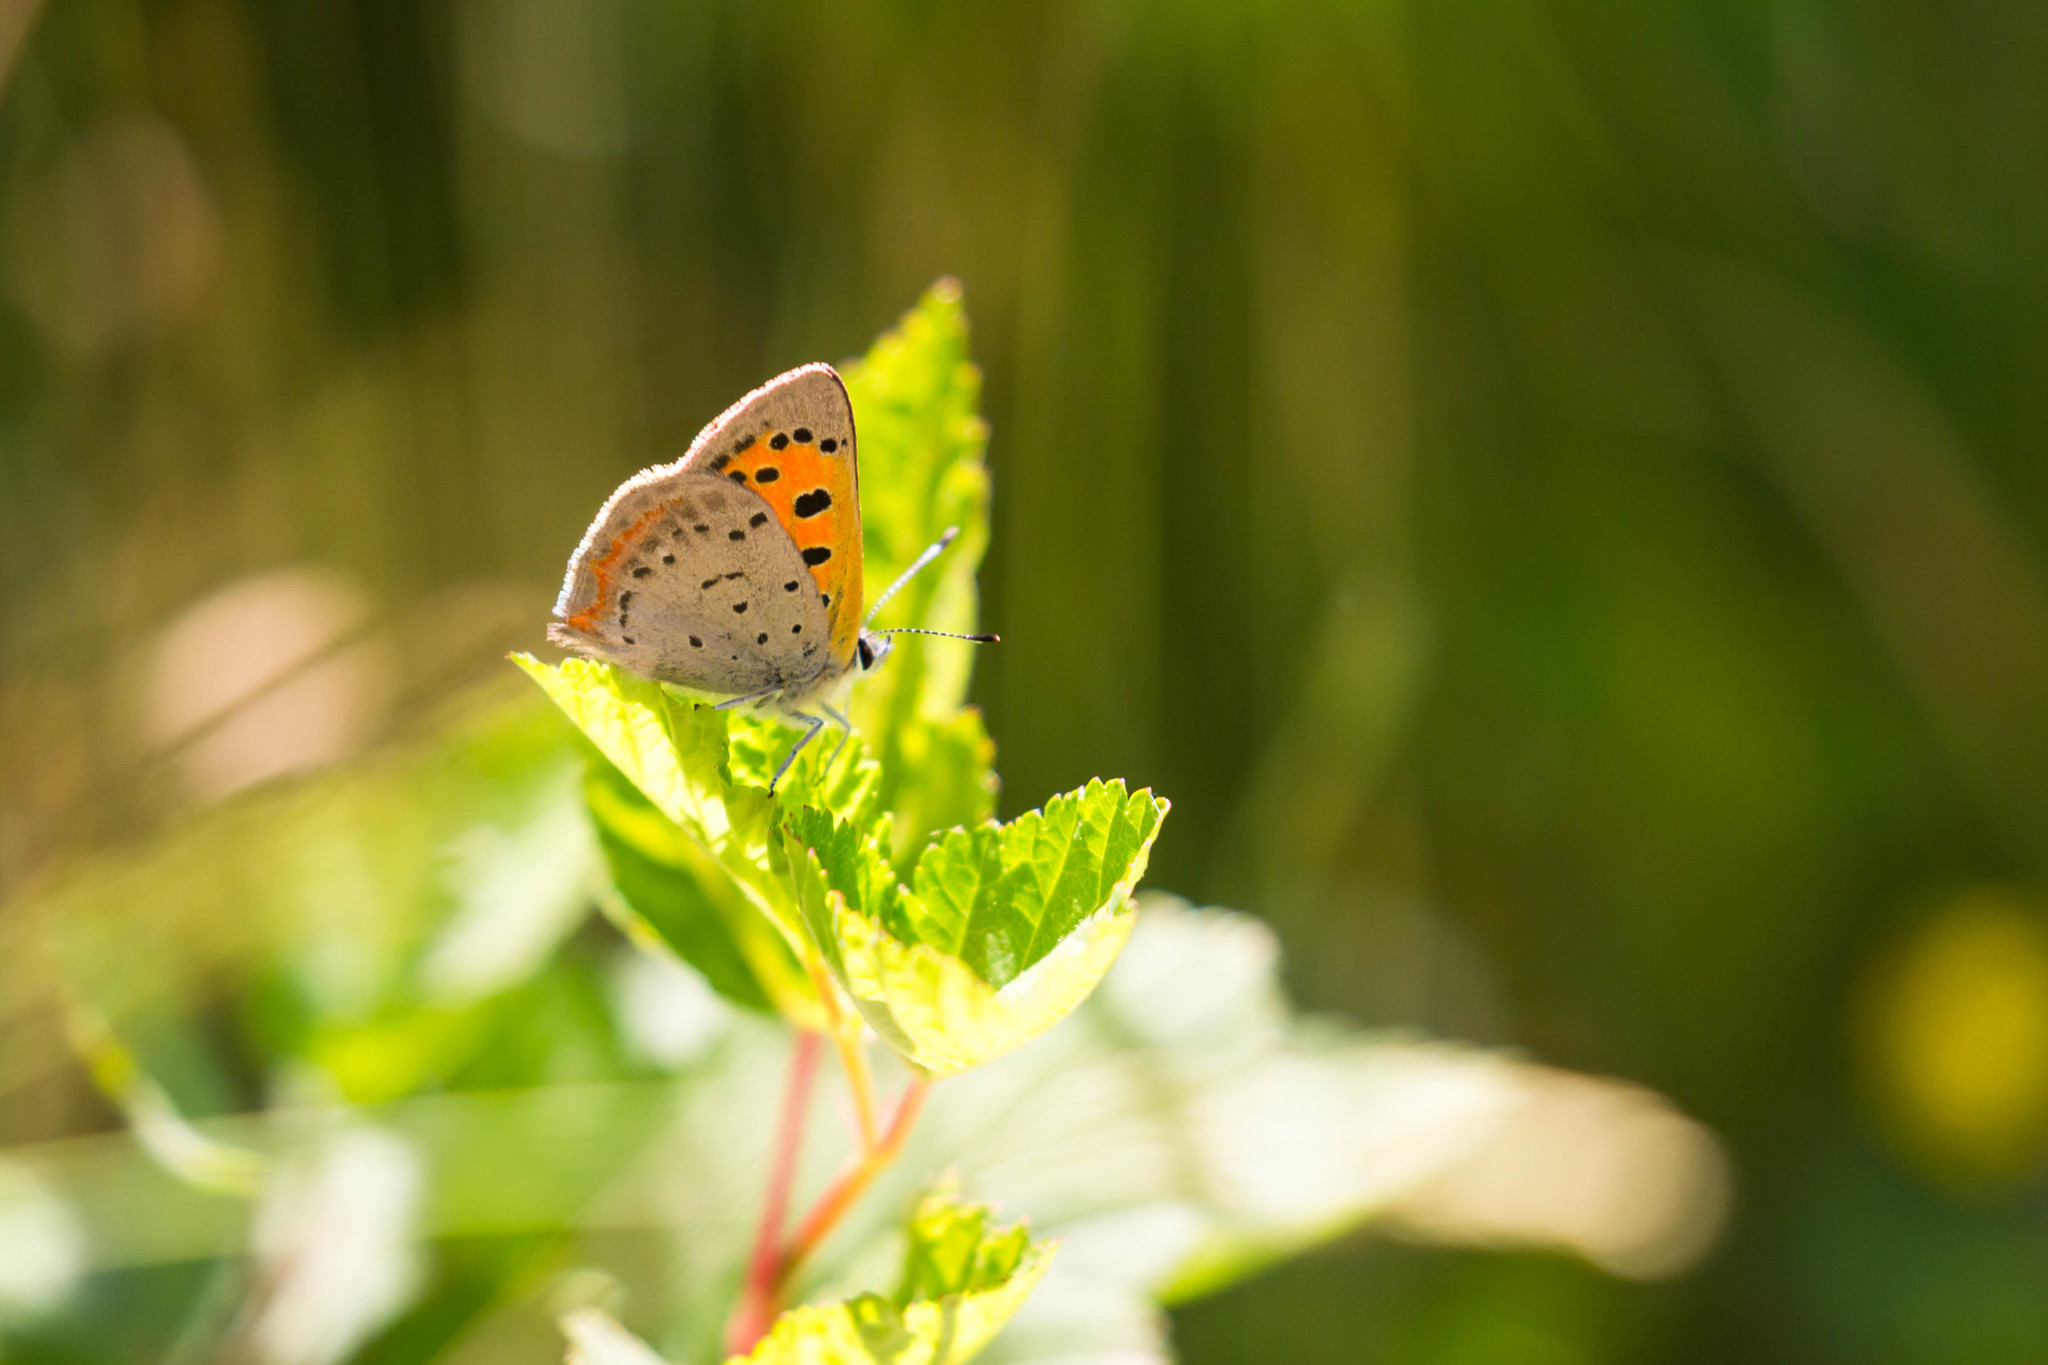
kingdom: Animalia
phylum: Arthropoda
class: Insecta
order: Lepidoptera
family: Lycaenidae
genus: Lycaena
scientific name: Lycaena hypophlaeas
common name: American copper
